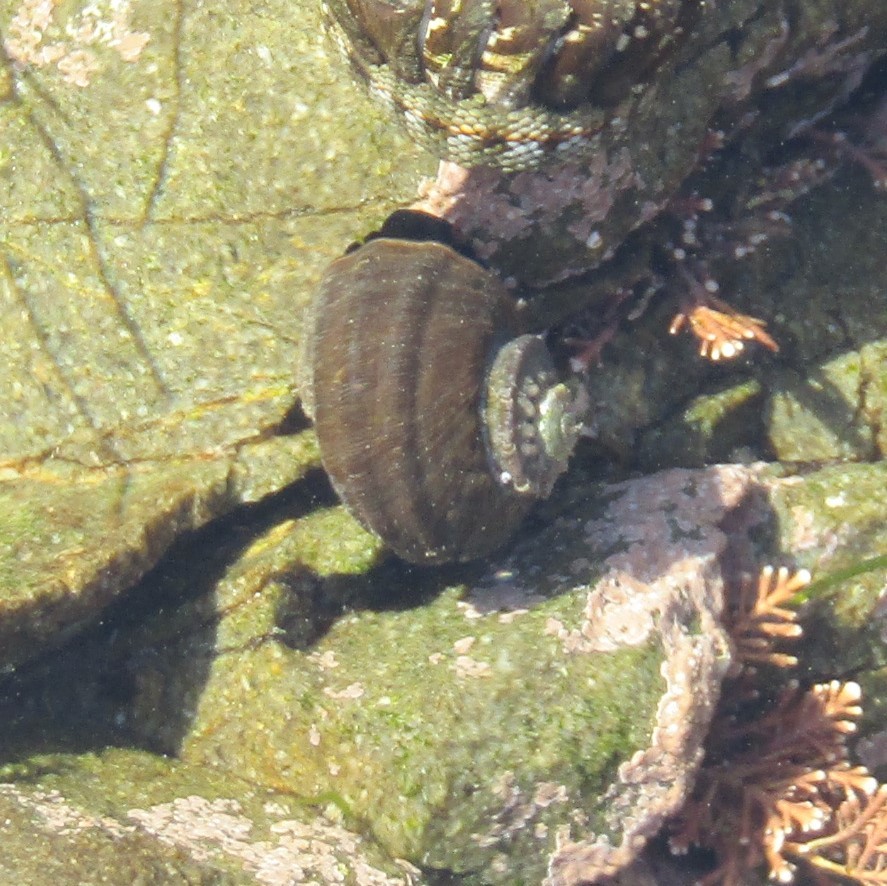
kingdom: Animalia
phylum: Mollusca
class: Gastropoda
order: Trochida
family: Turbinidae
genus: Lunella
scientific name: Lunella smaragda
